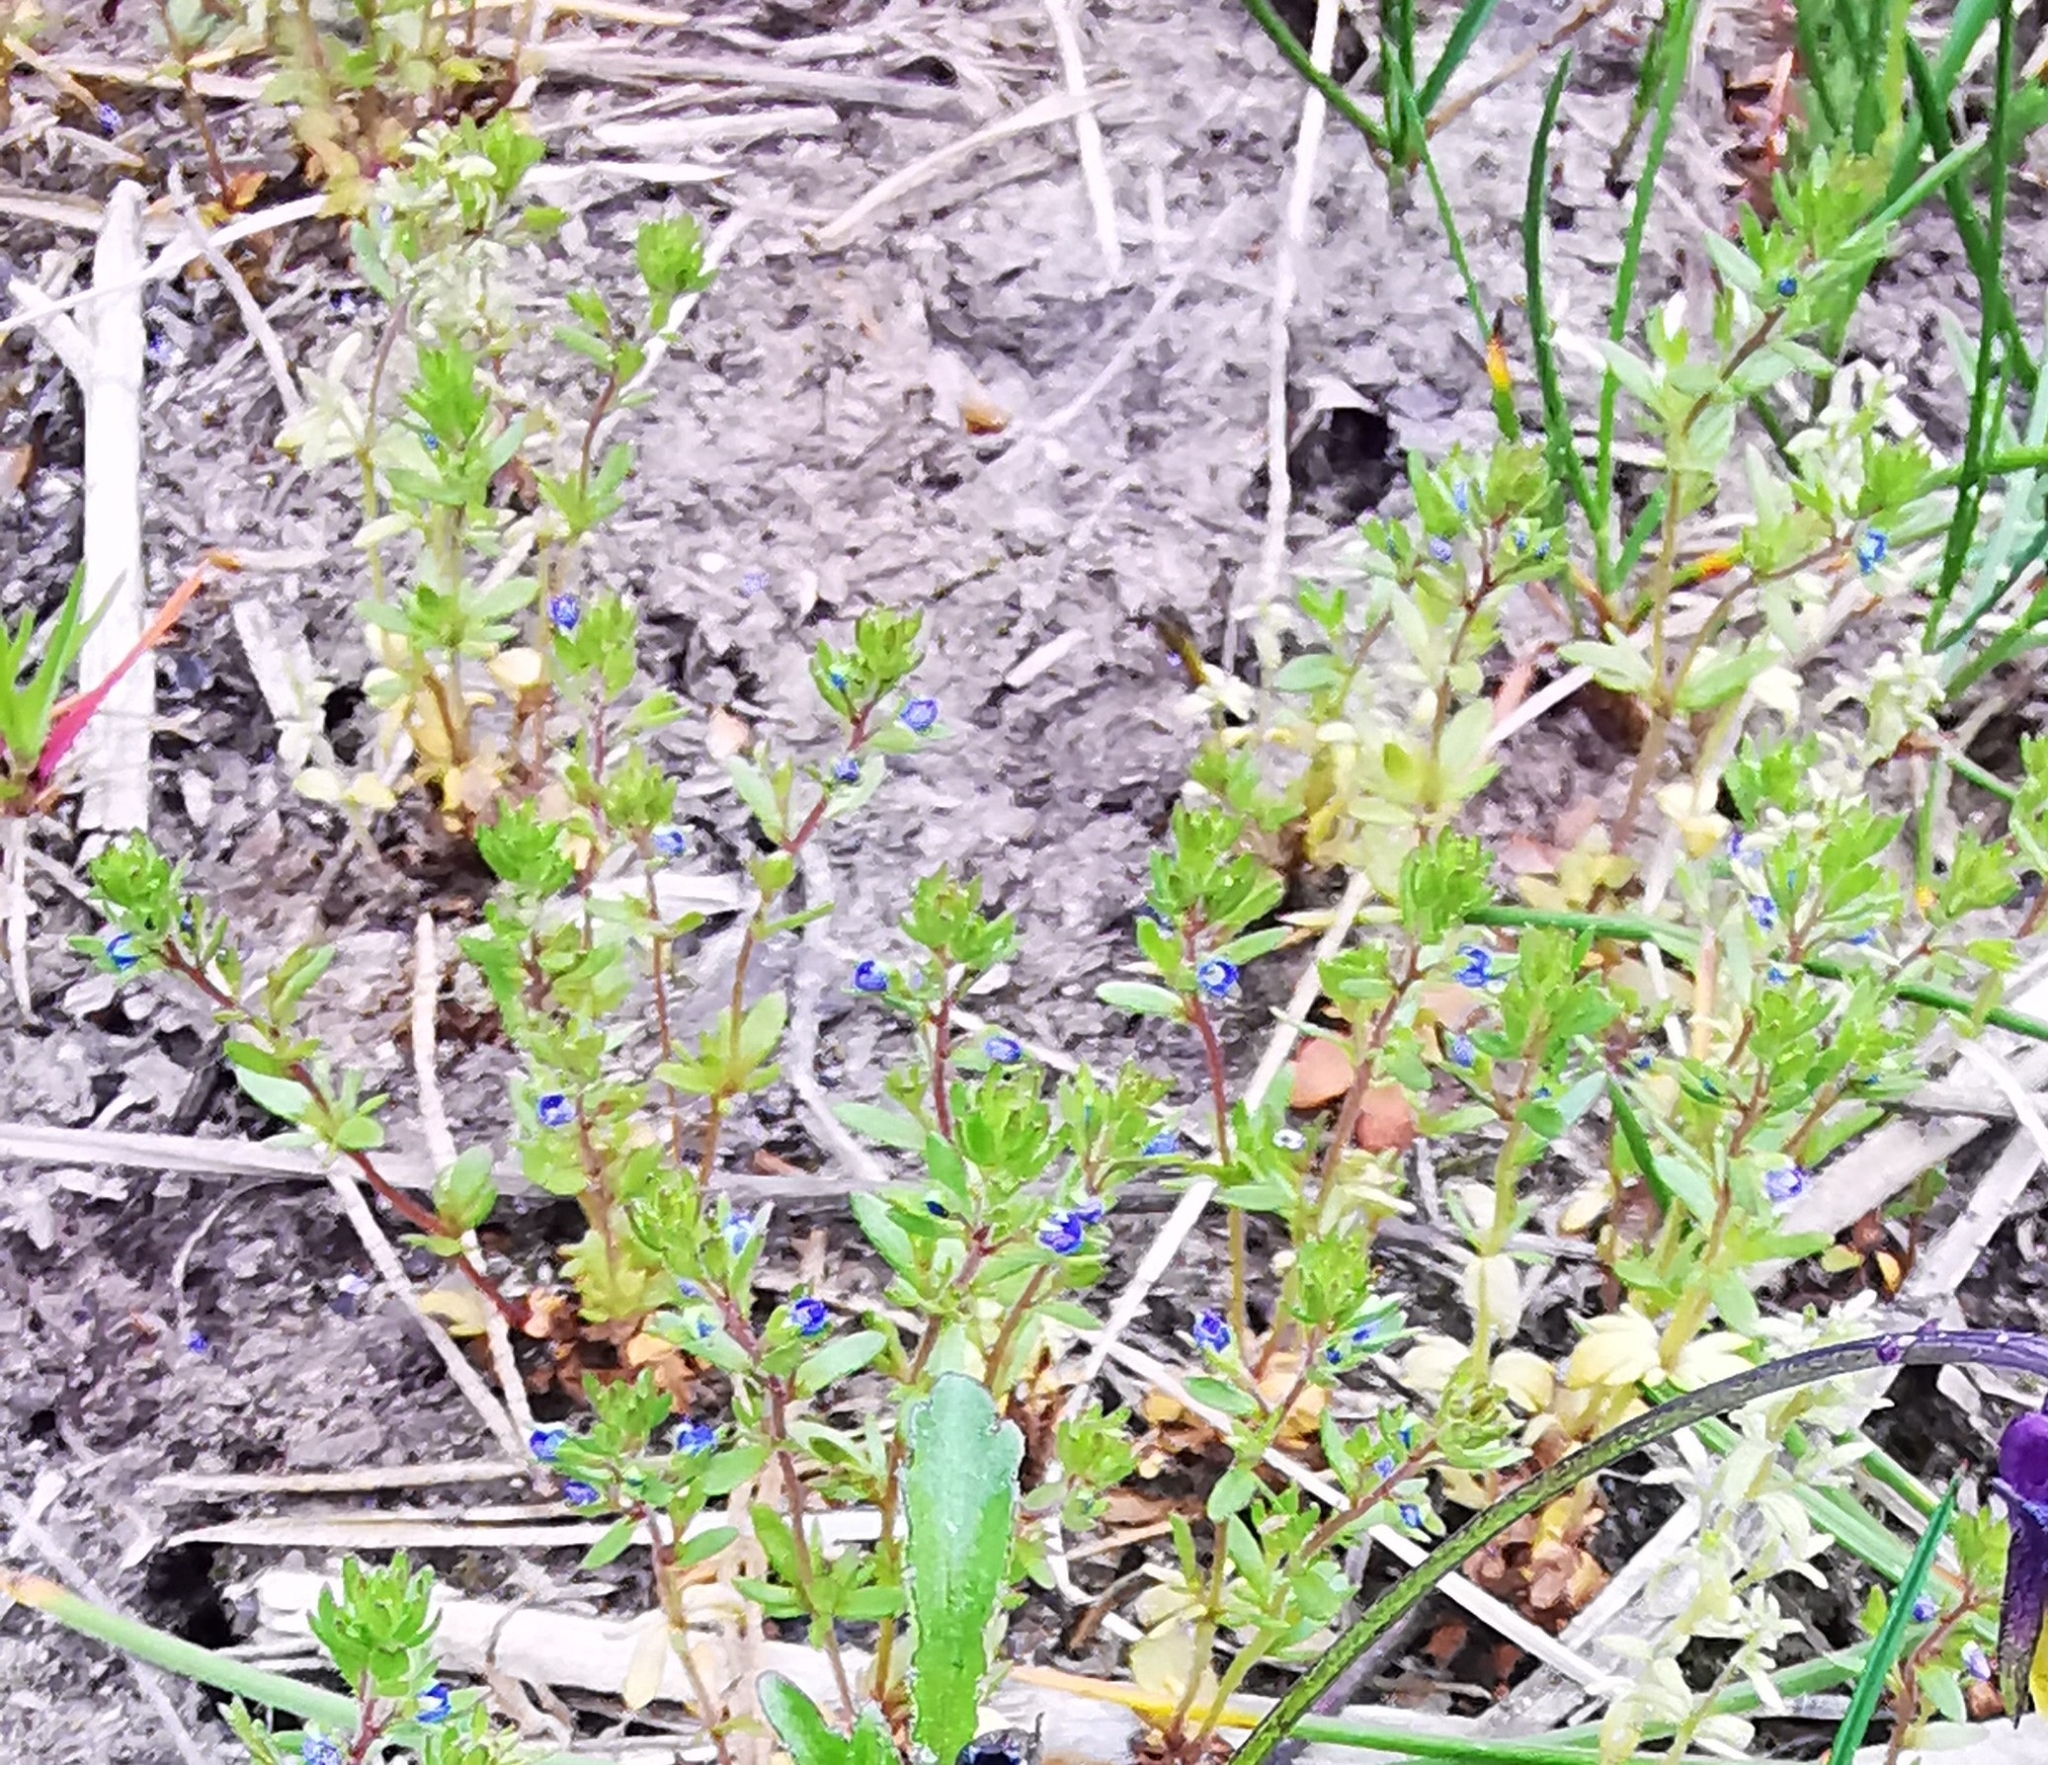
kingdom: Plantae
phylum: Tracheophyta
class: Magnoliopsida
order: Lamiales
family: Plantaginaceae
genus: Veronica
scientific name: Veronica verna
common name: Spring speedwell
